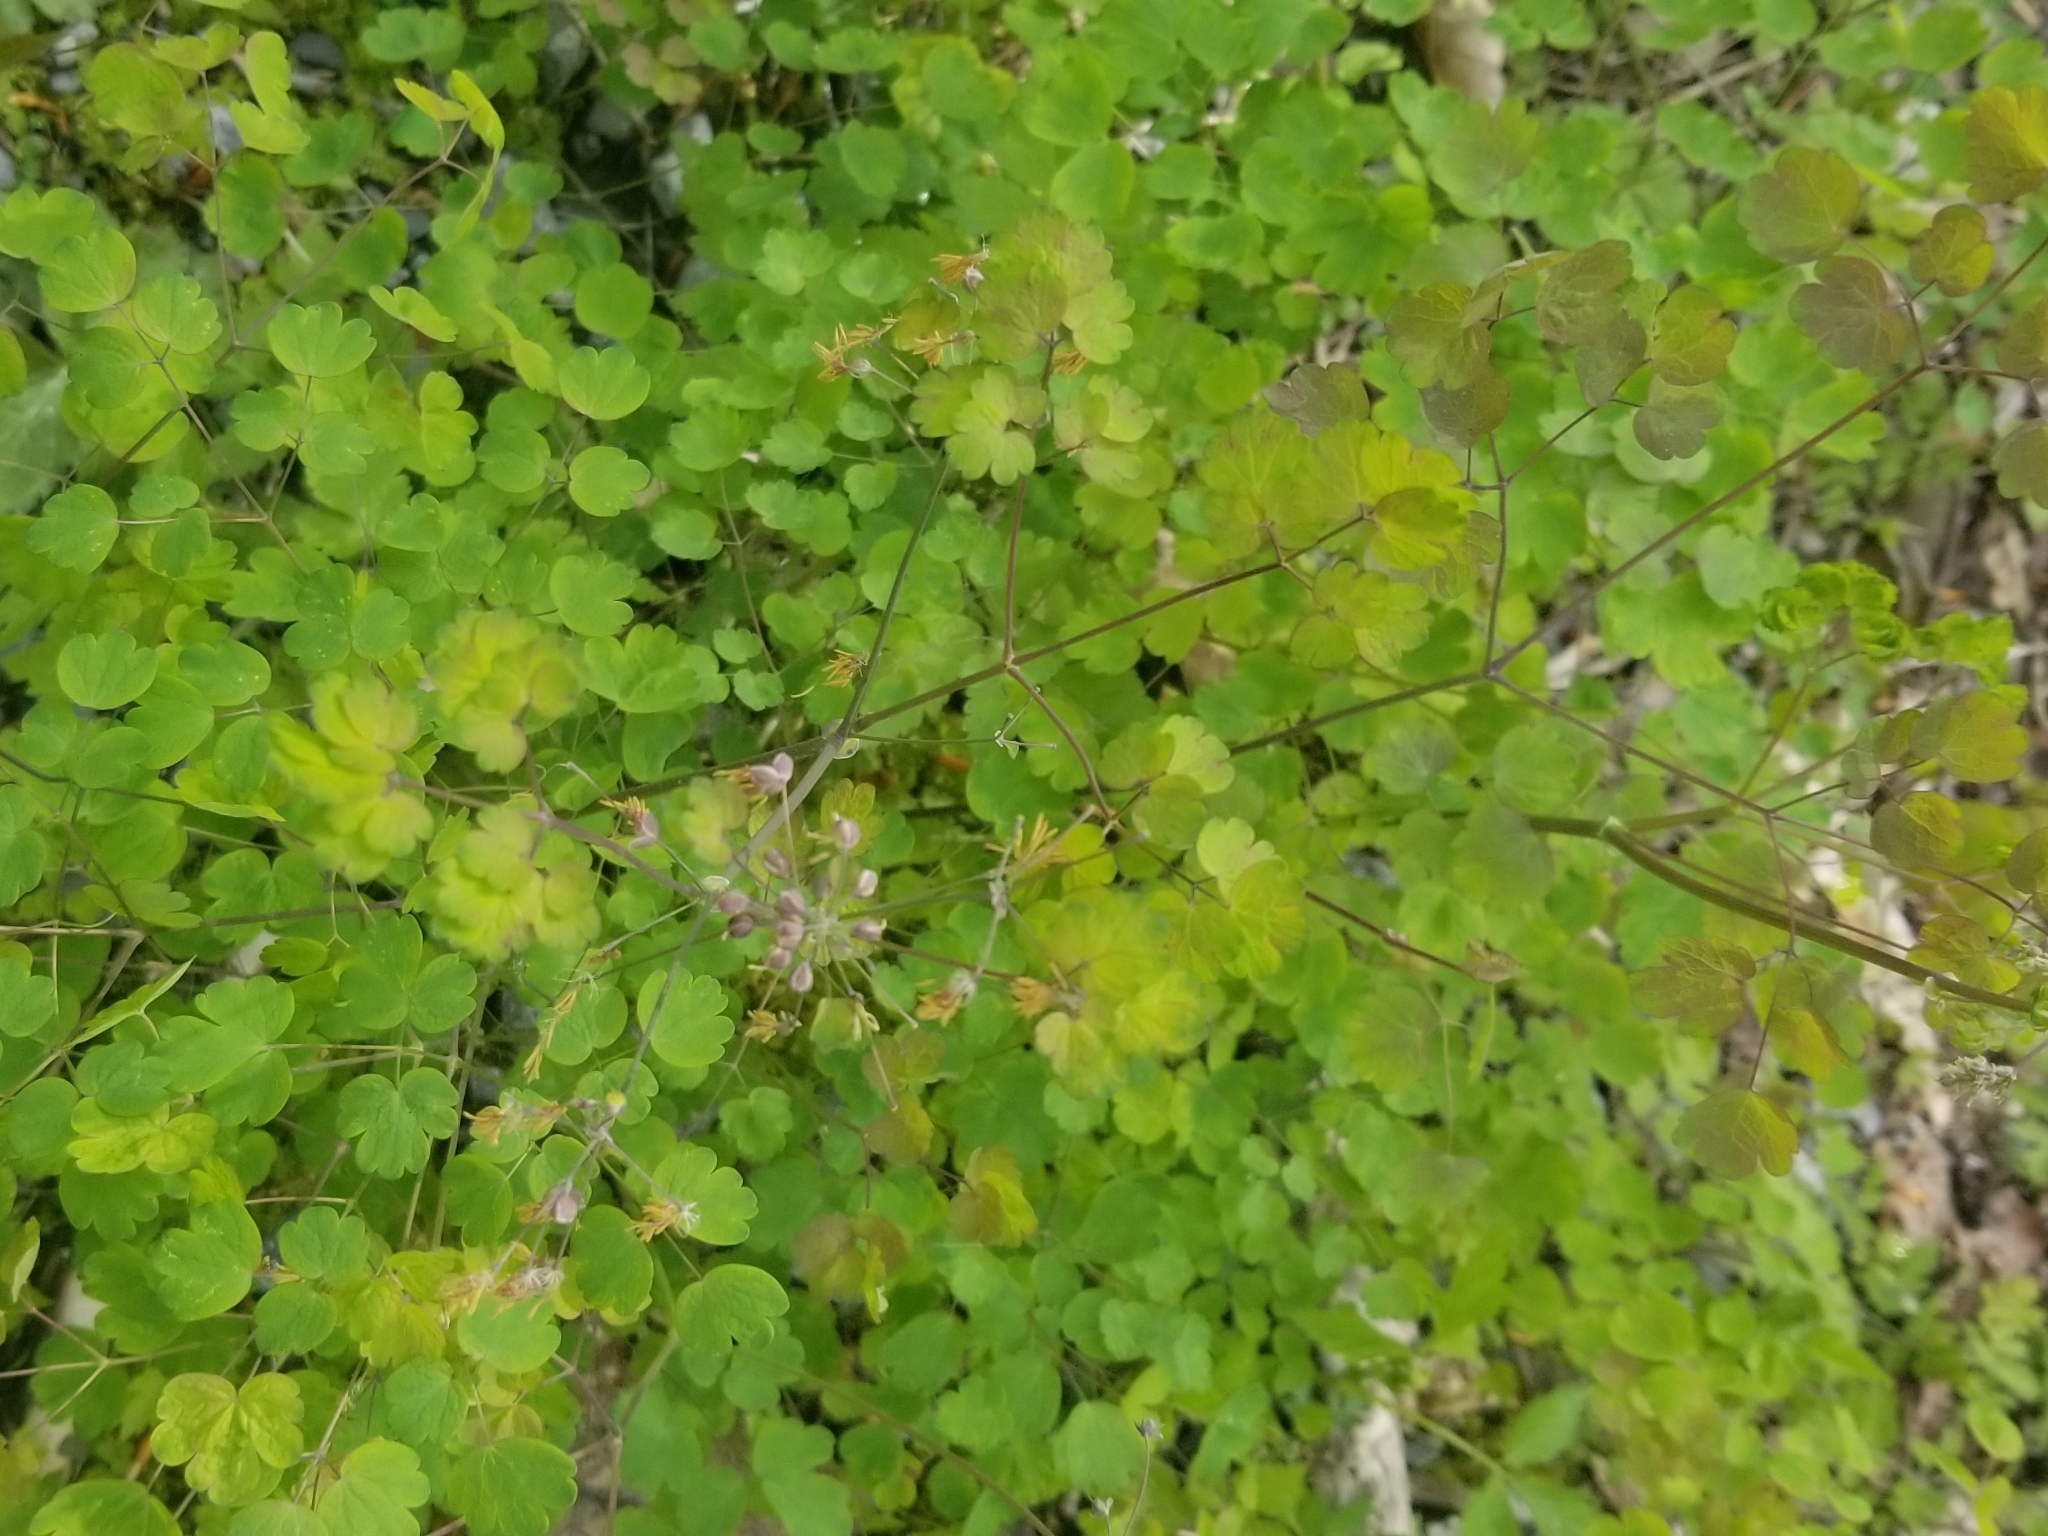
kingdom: Plantae
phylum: Tracheophyta
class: Magnoliopsida
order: Ranunculales
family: Ranunculaceae
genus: Thalictrum
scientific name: Thalictrum dioicum
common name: Early meadow-rue
